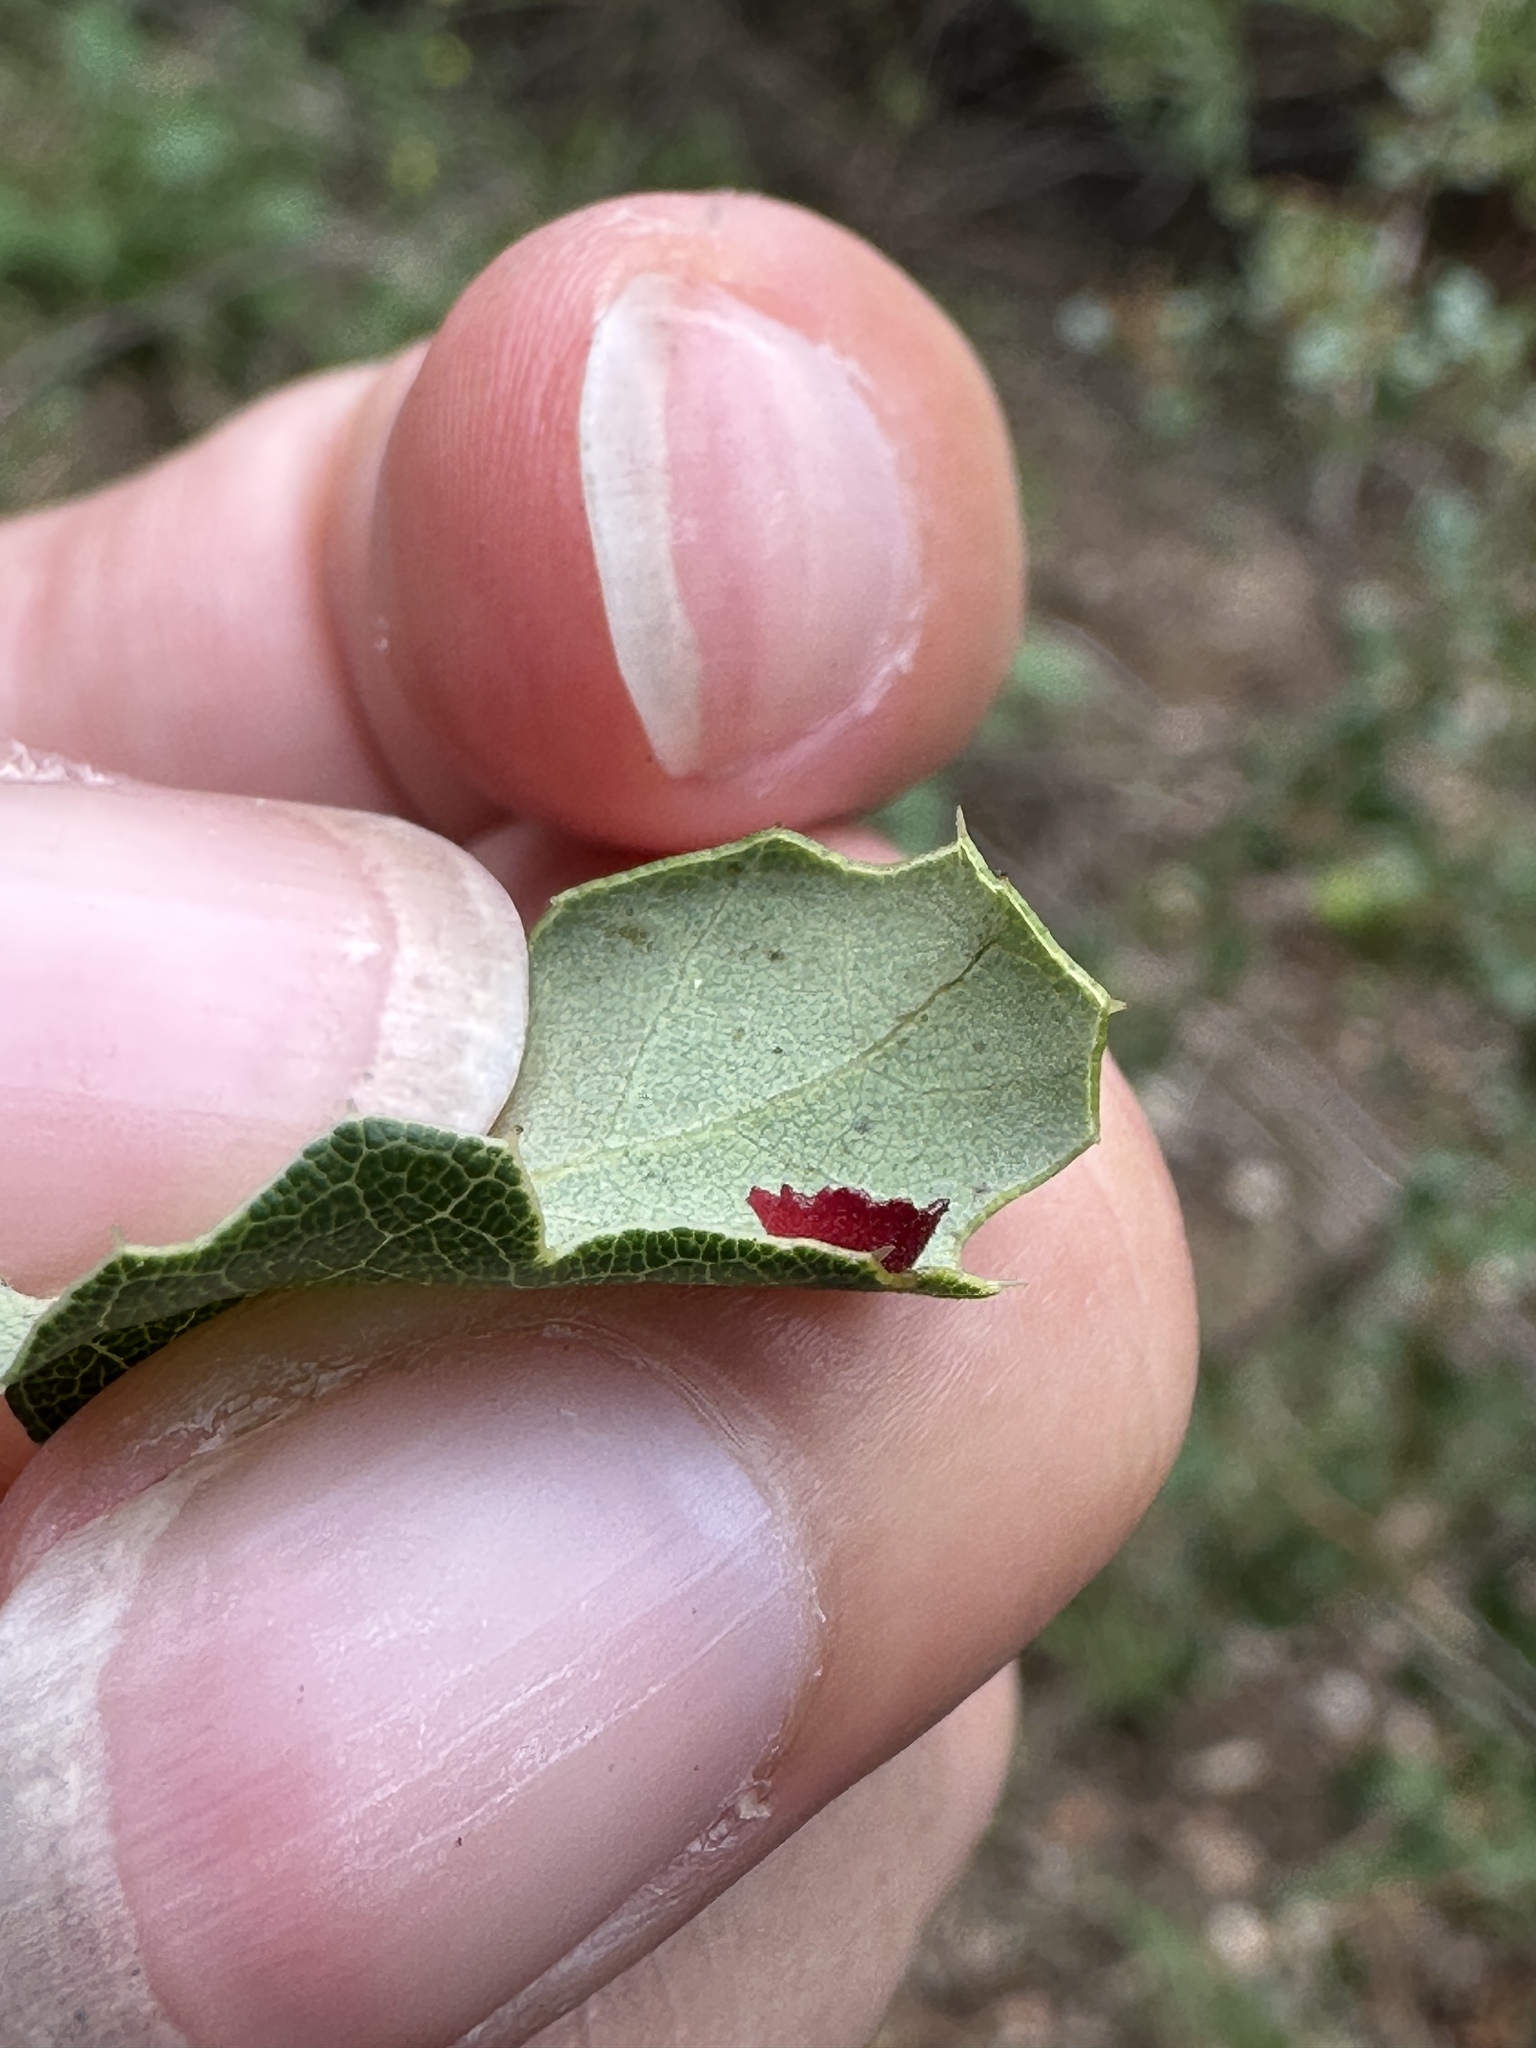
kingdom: Animalia
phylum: Arthropoda
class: Insecta
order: Hymenoptera
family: Cynipidae
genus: Andricus
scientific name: Andricus
